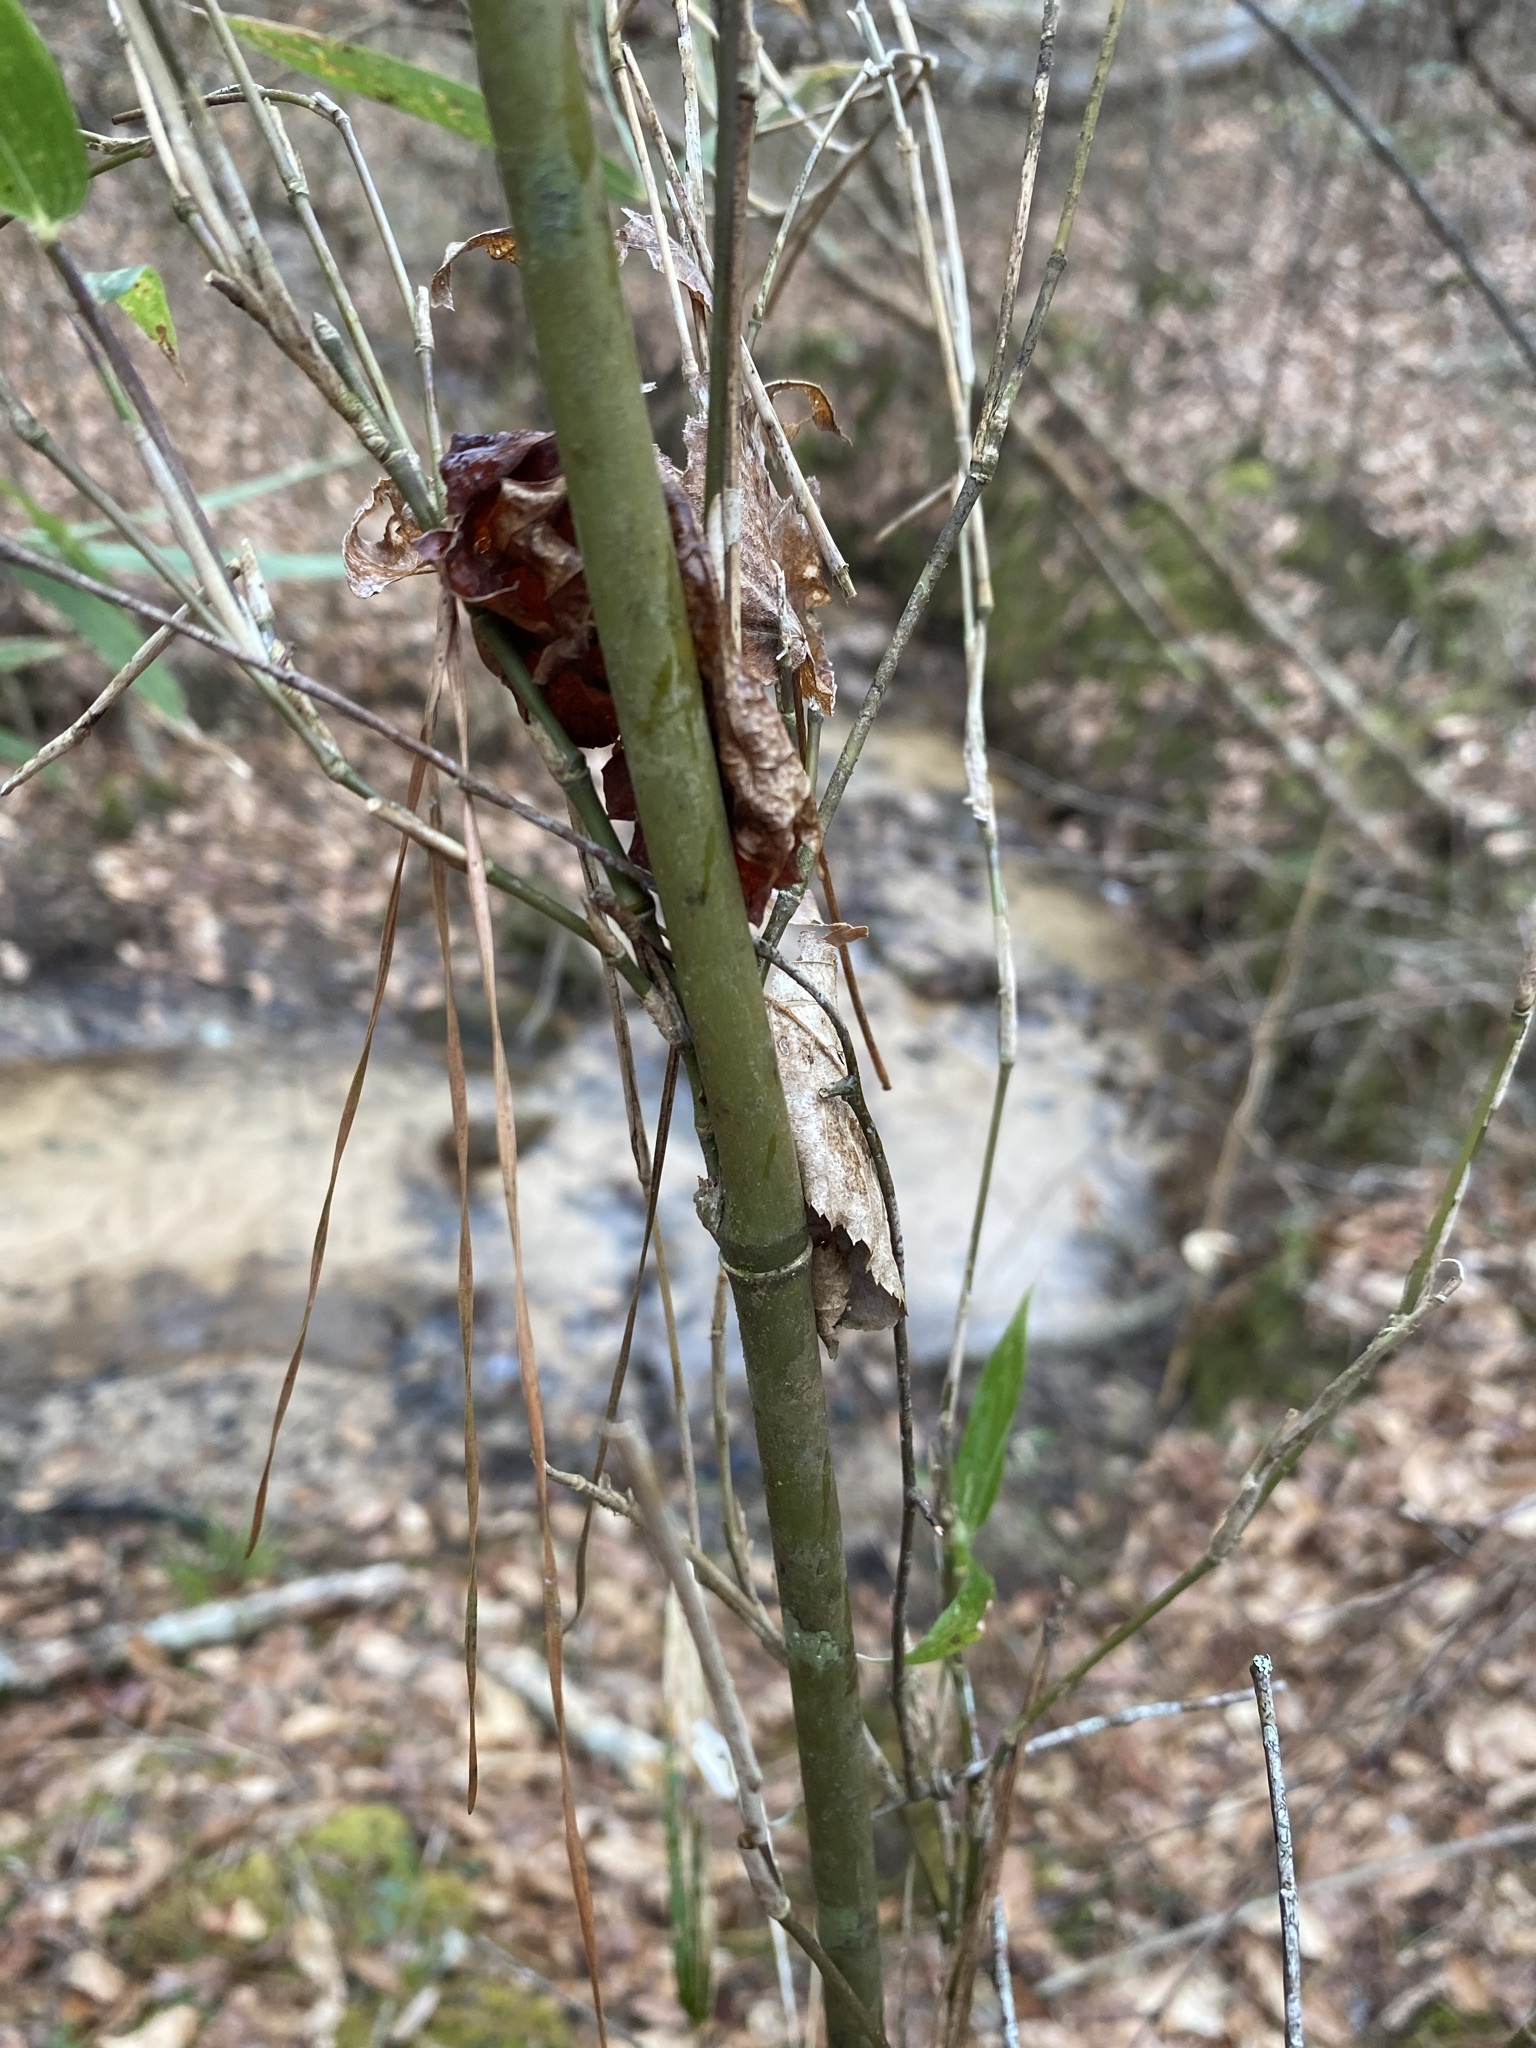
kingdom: Plantae
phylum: Tracheophyta
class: Liliopsida
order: Poales
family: Poaceae
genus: Arundinaria
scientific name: Arundinaria gigantea
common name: Giant cane
